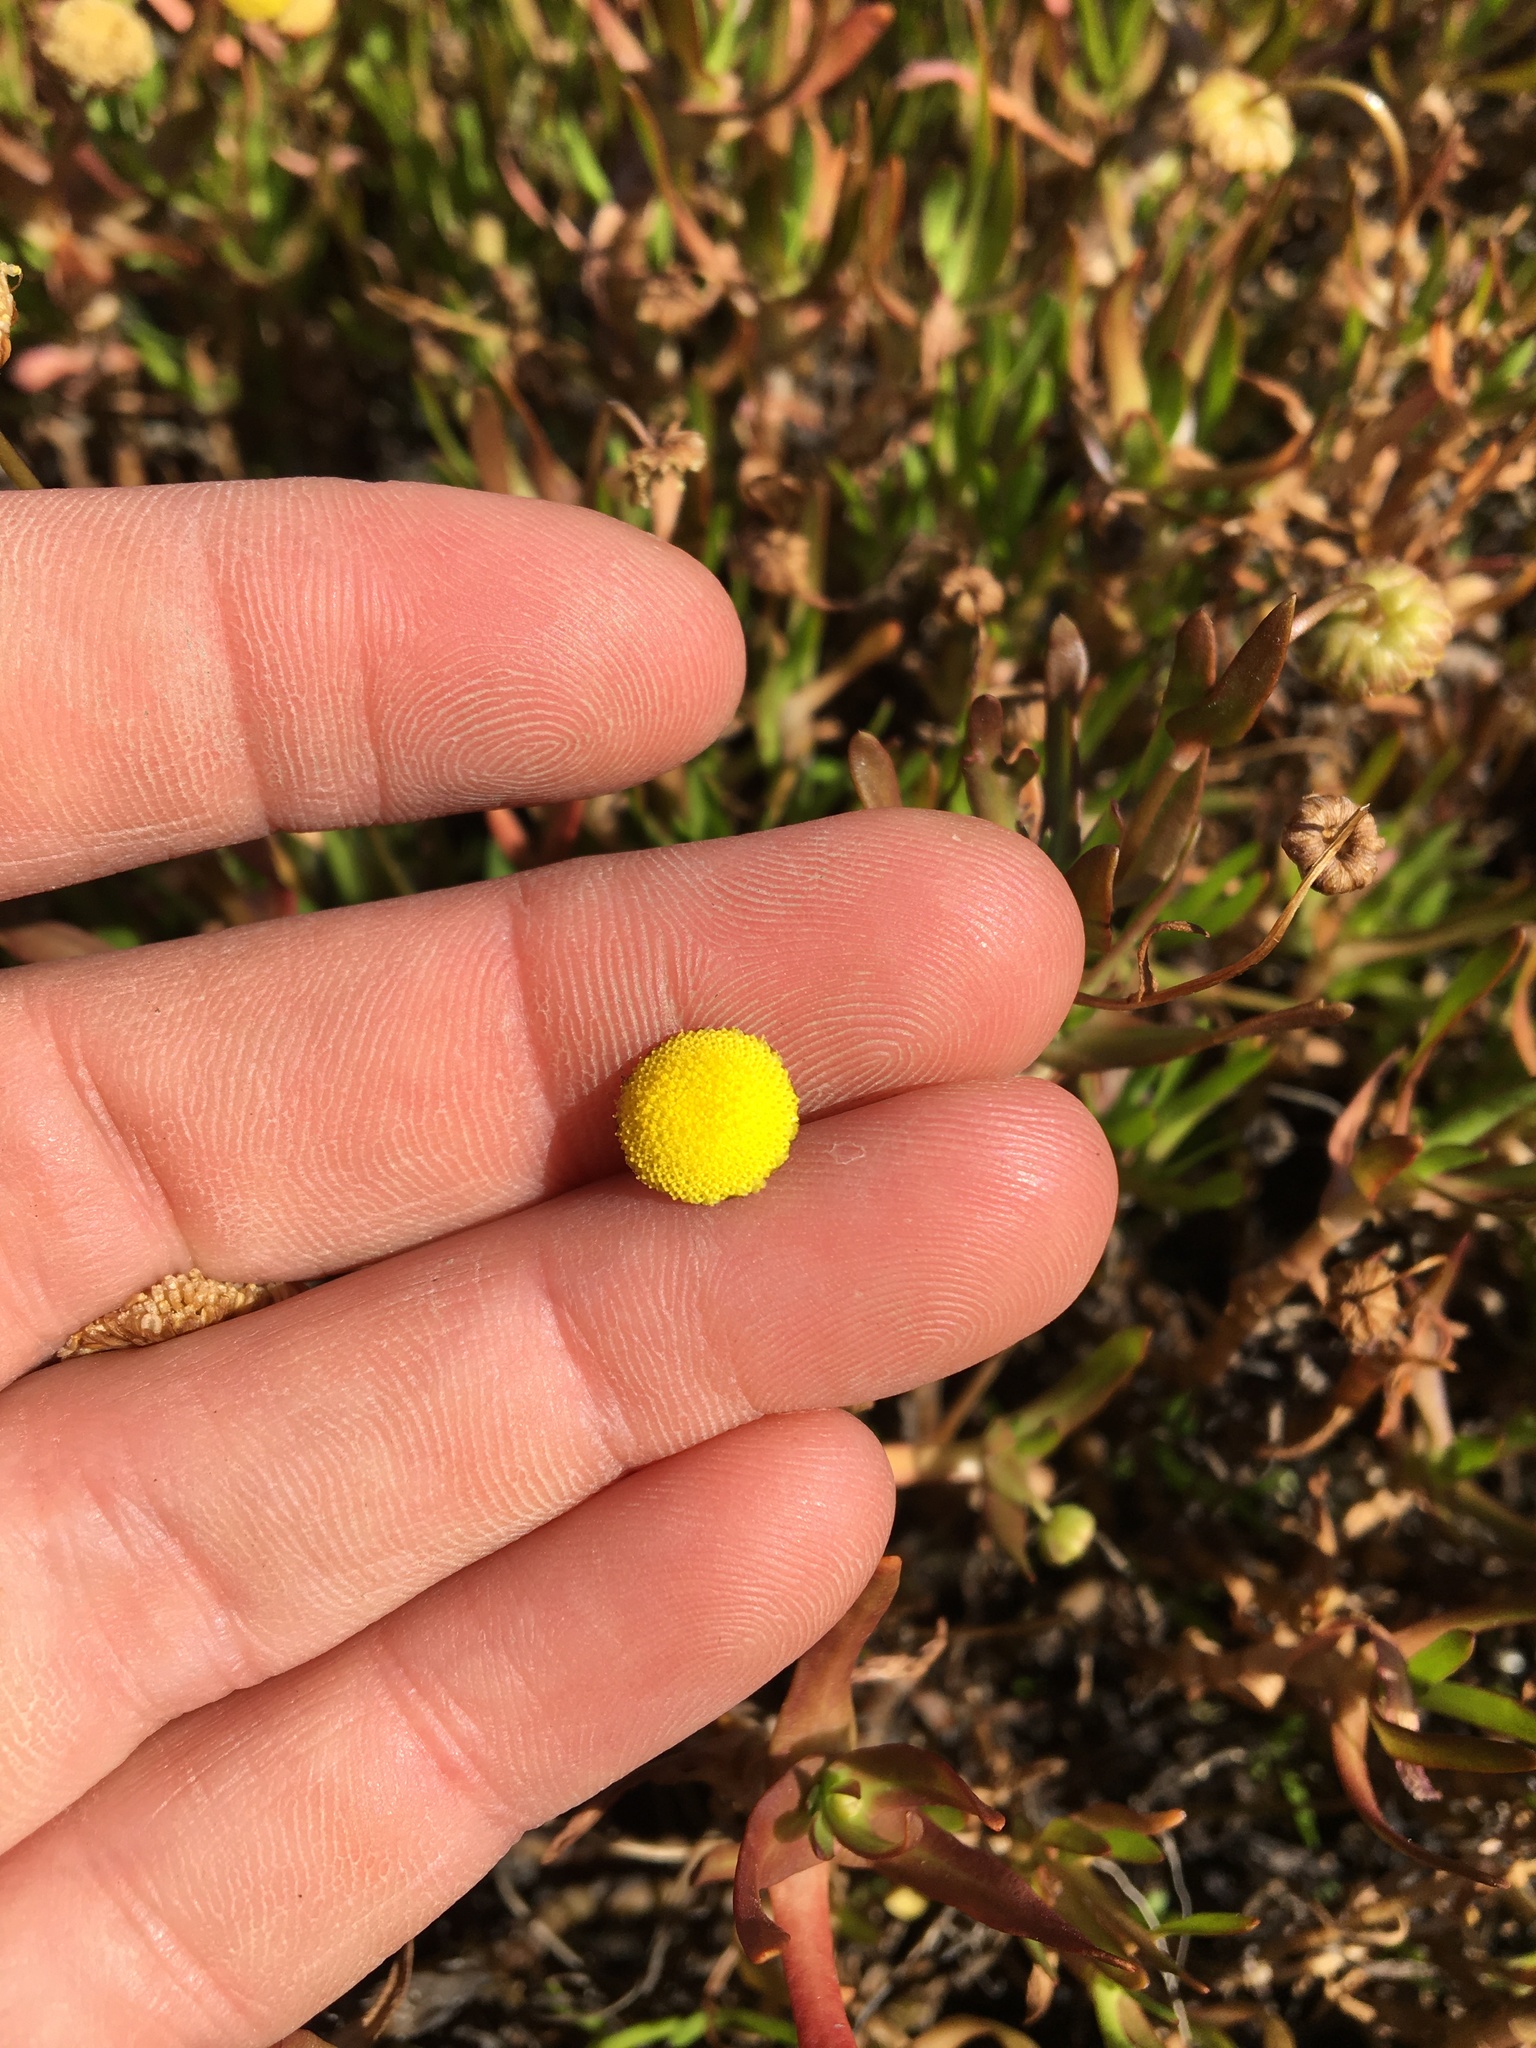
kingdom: Plantae
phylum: Tracheophyta
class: Magnoliopsida
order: Asterales
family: Asteraceae
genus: Cotula
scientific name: Cotula coronopifolia
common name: Buttonweed
